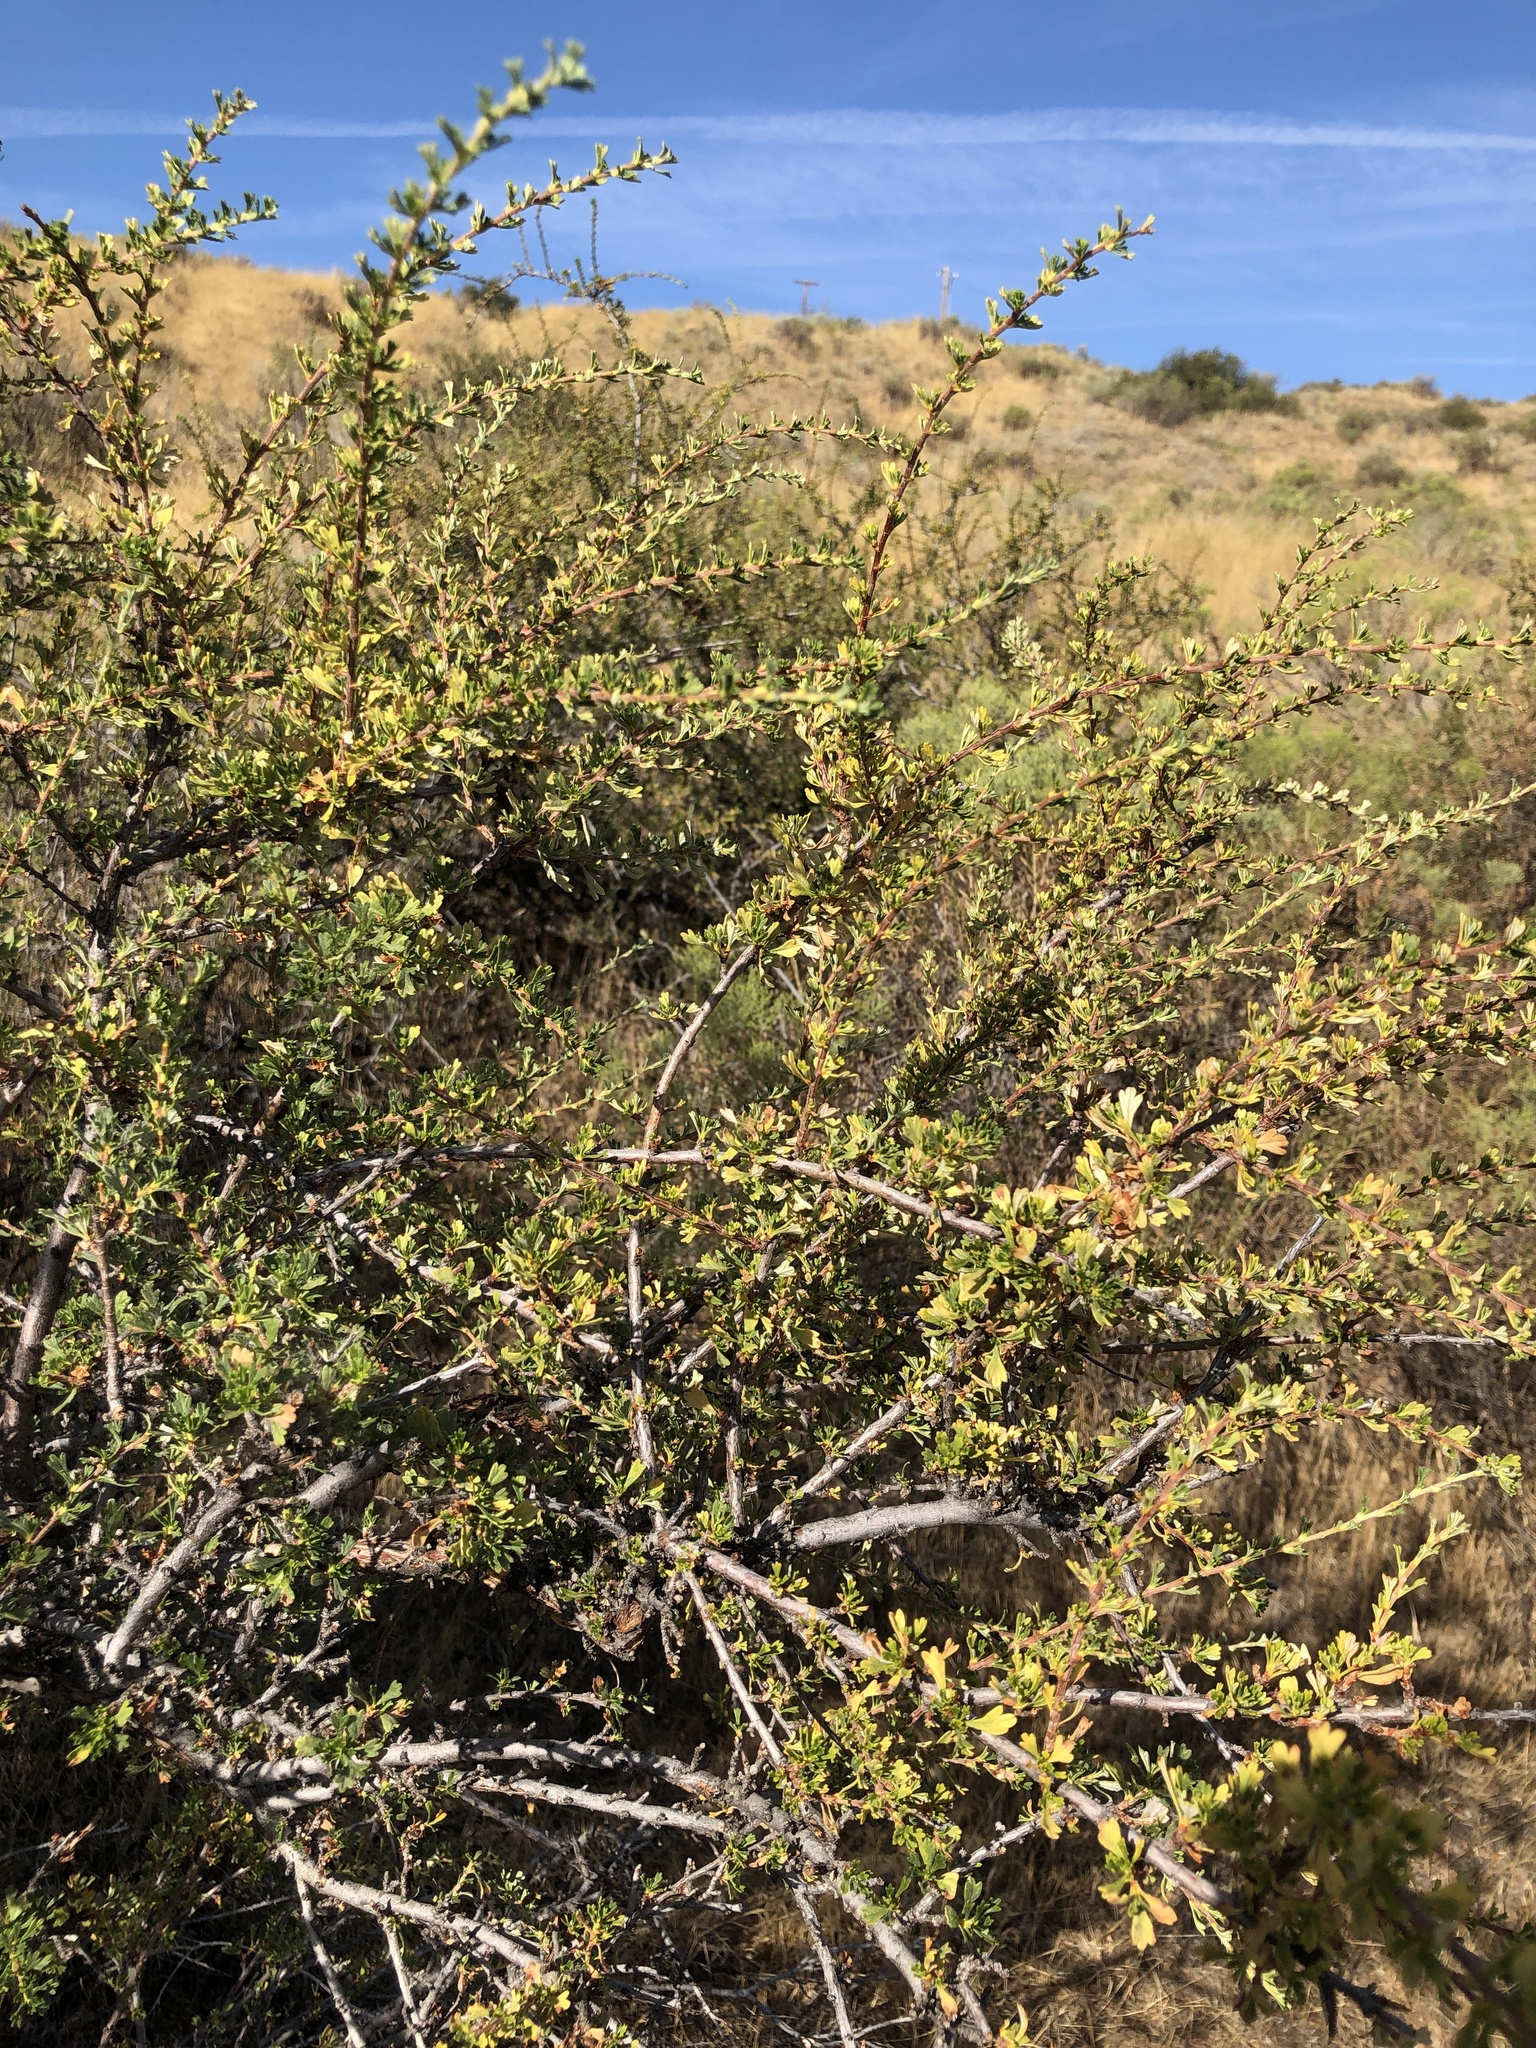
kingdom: Plantae
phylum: Tracheophyta
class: Magnoliopsida
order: Rosales
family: Rosaceae
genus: Purshia
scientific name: Purshia tridentata
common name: Antelope bitterbrush
